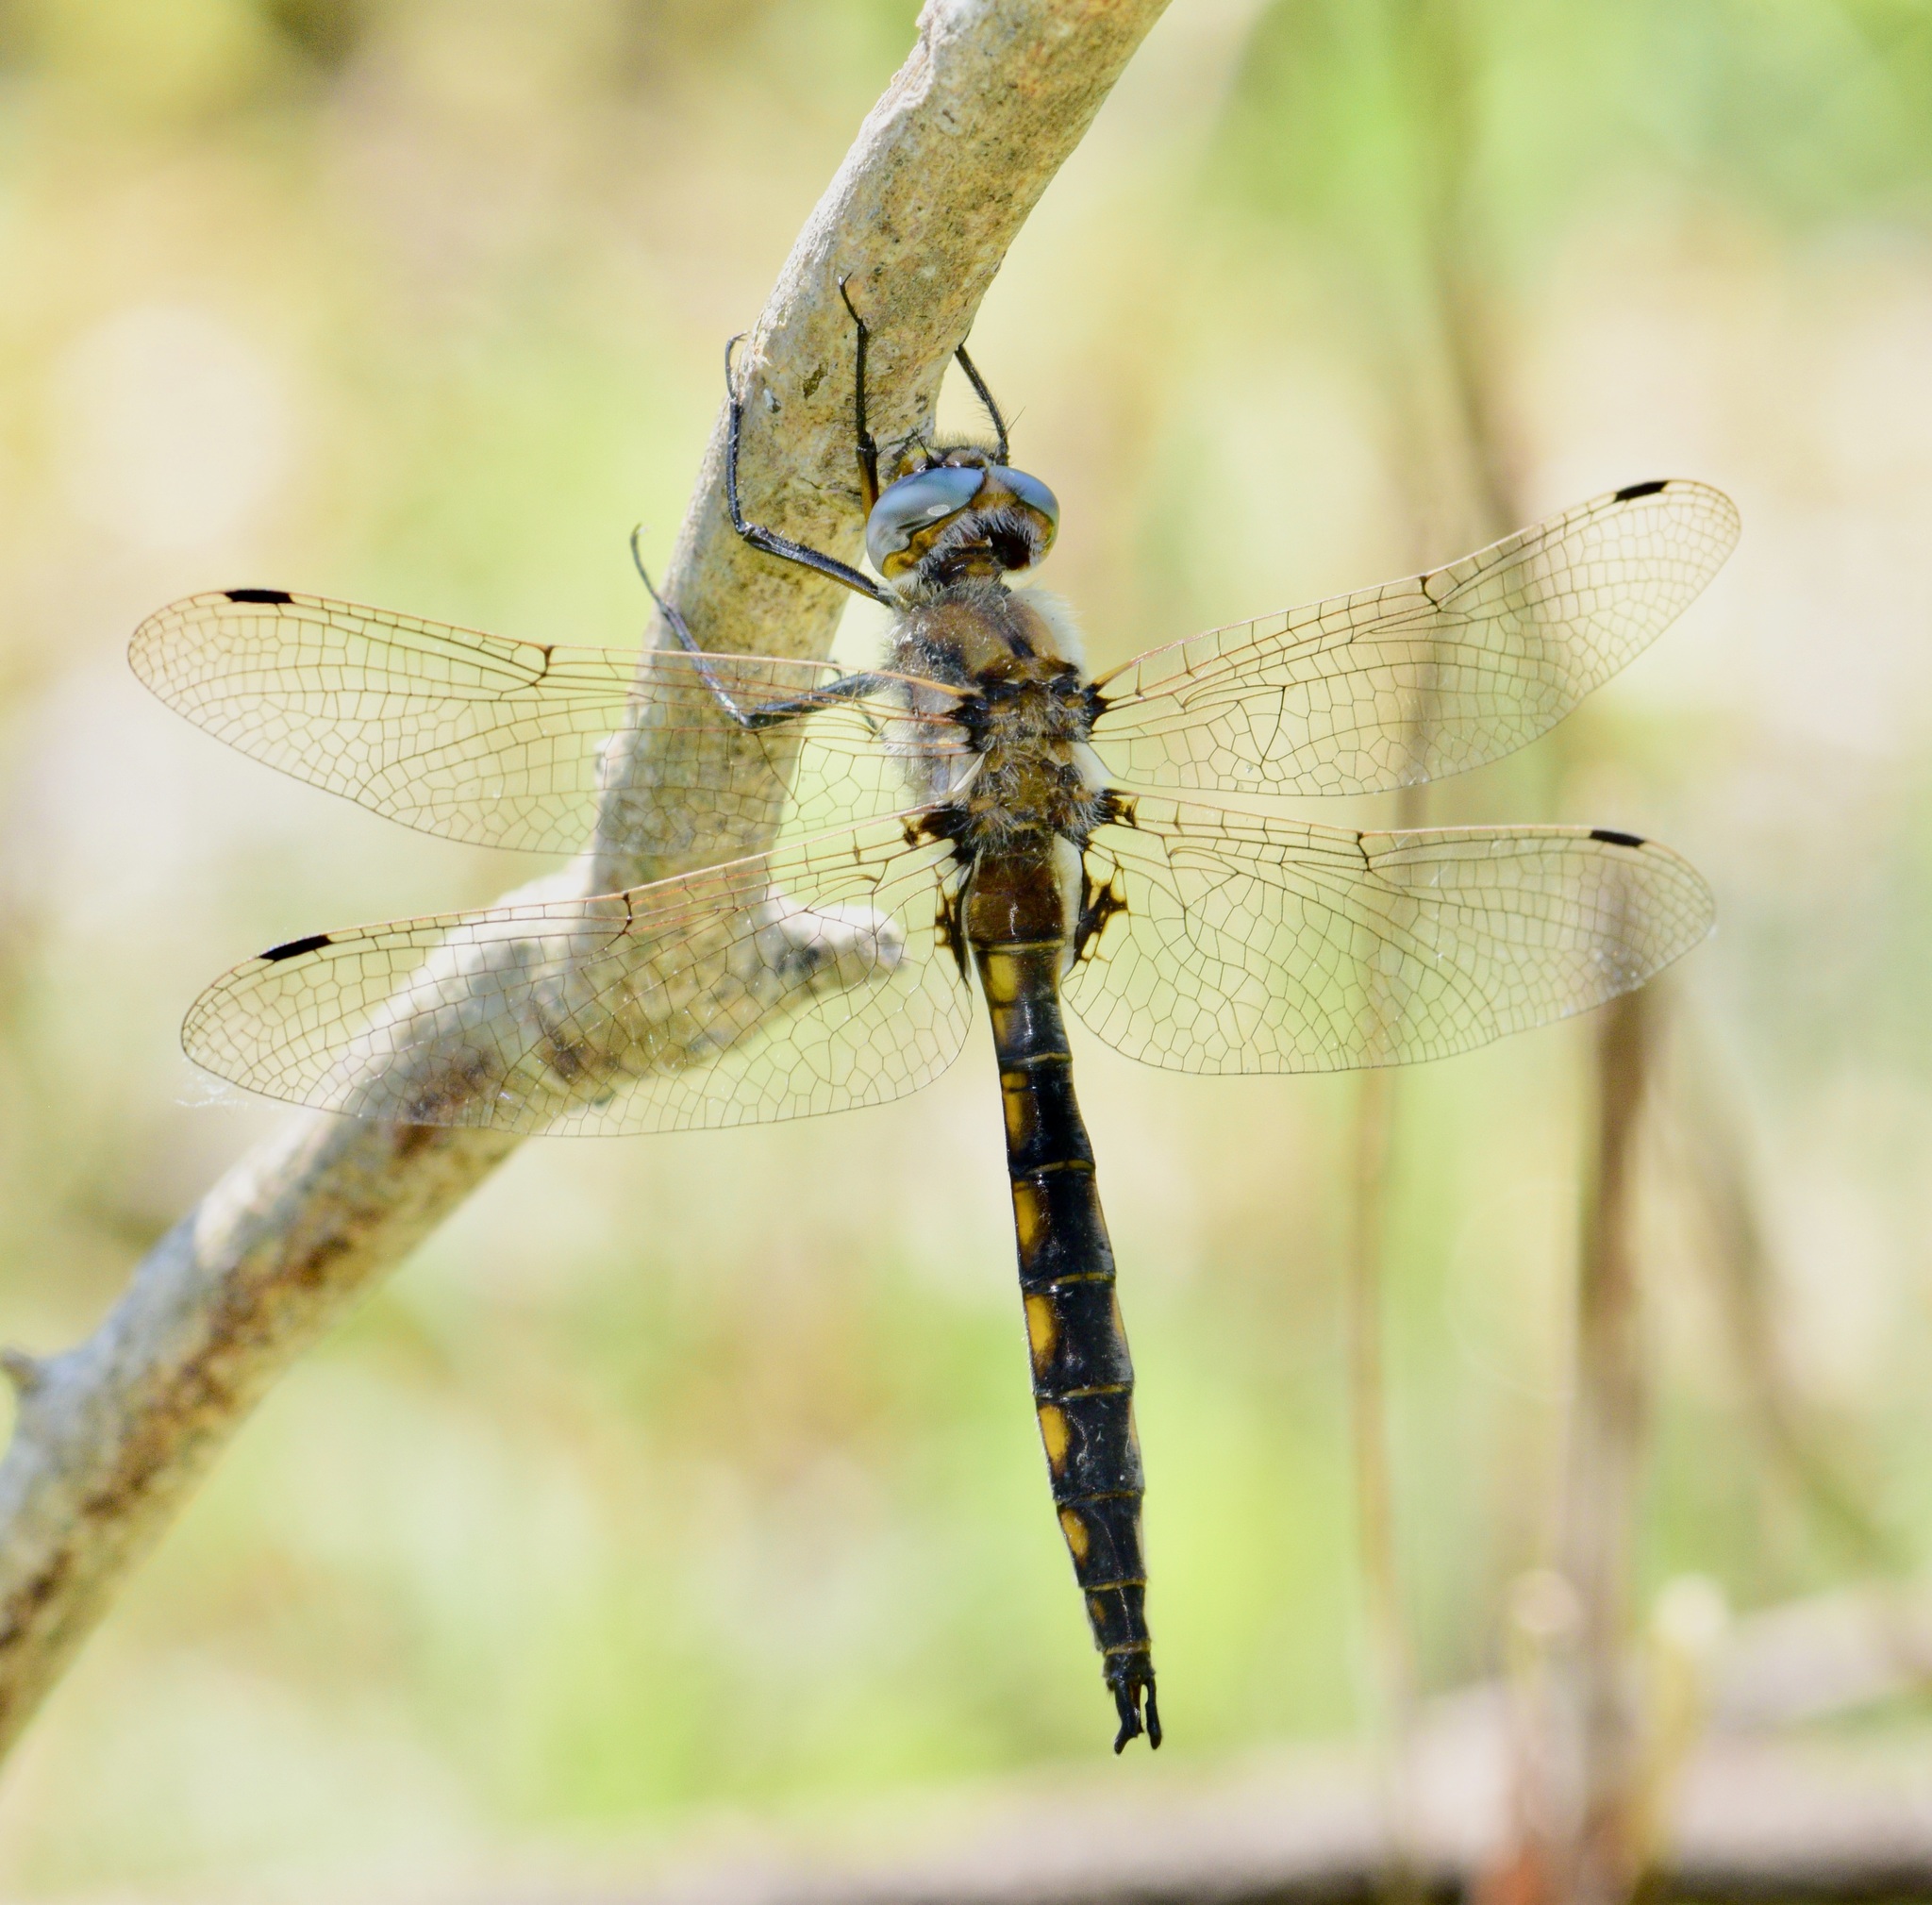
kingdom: Animalia
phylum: Arthropoda
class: Insecta
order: Odonata
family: Corduliidae
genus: Epitheca
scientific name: Epitheca canis
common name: Beaverpond baskettail
